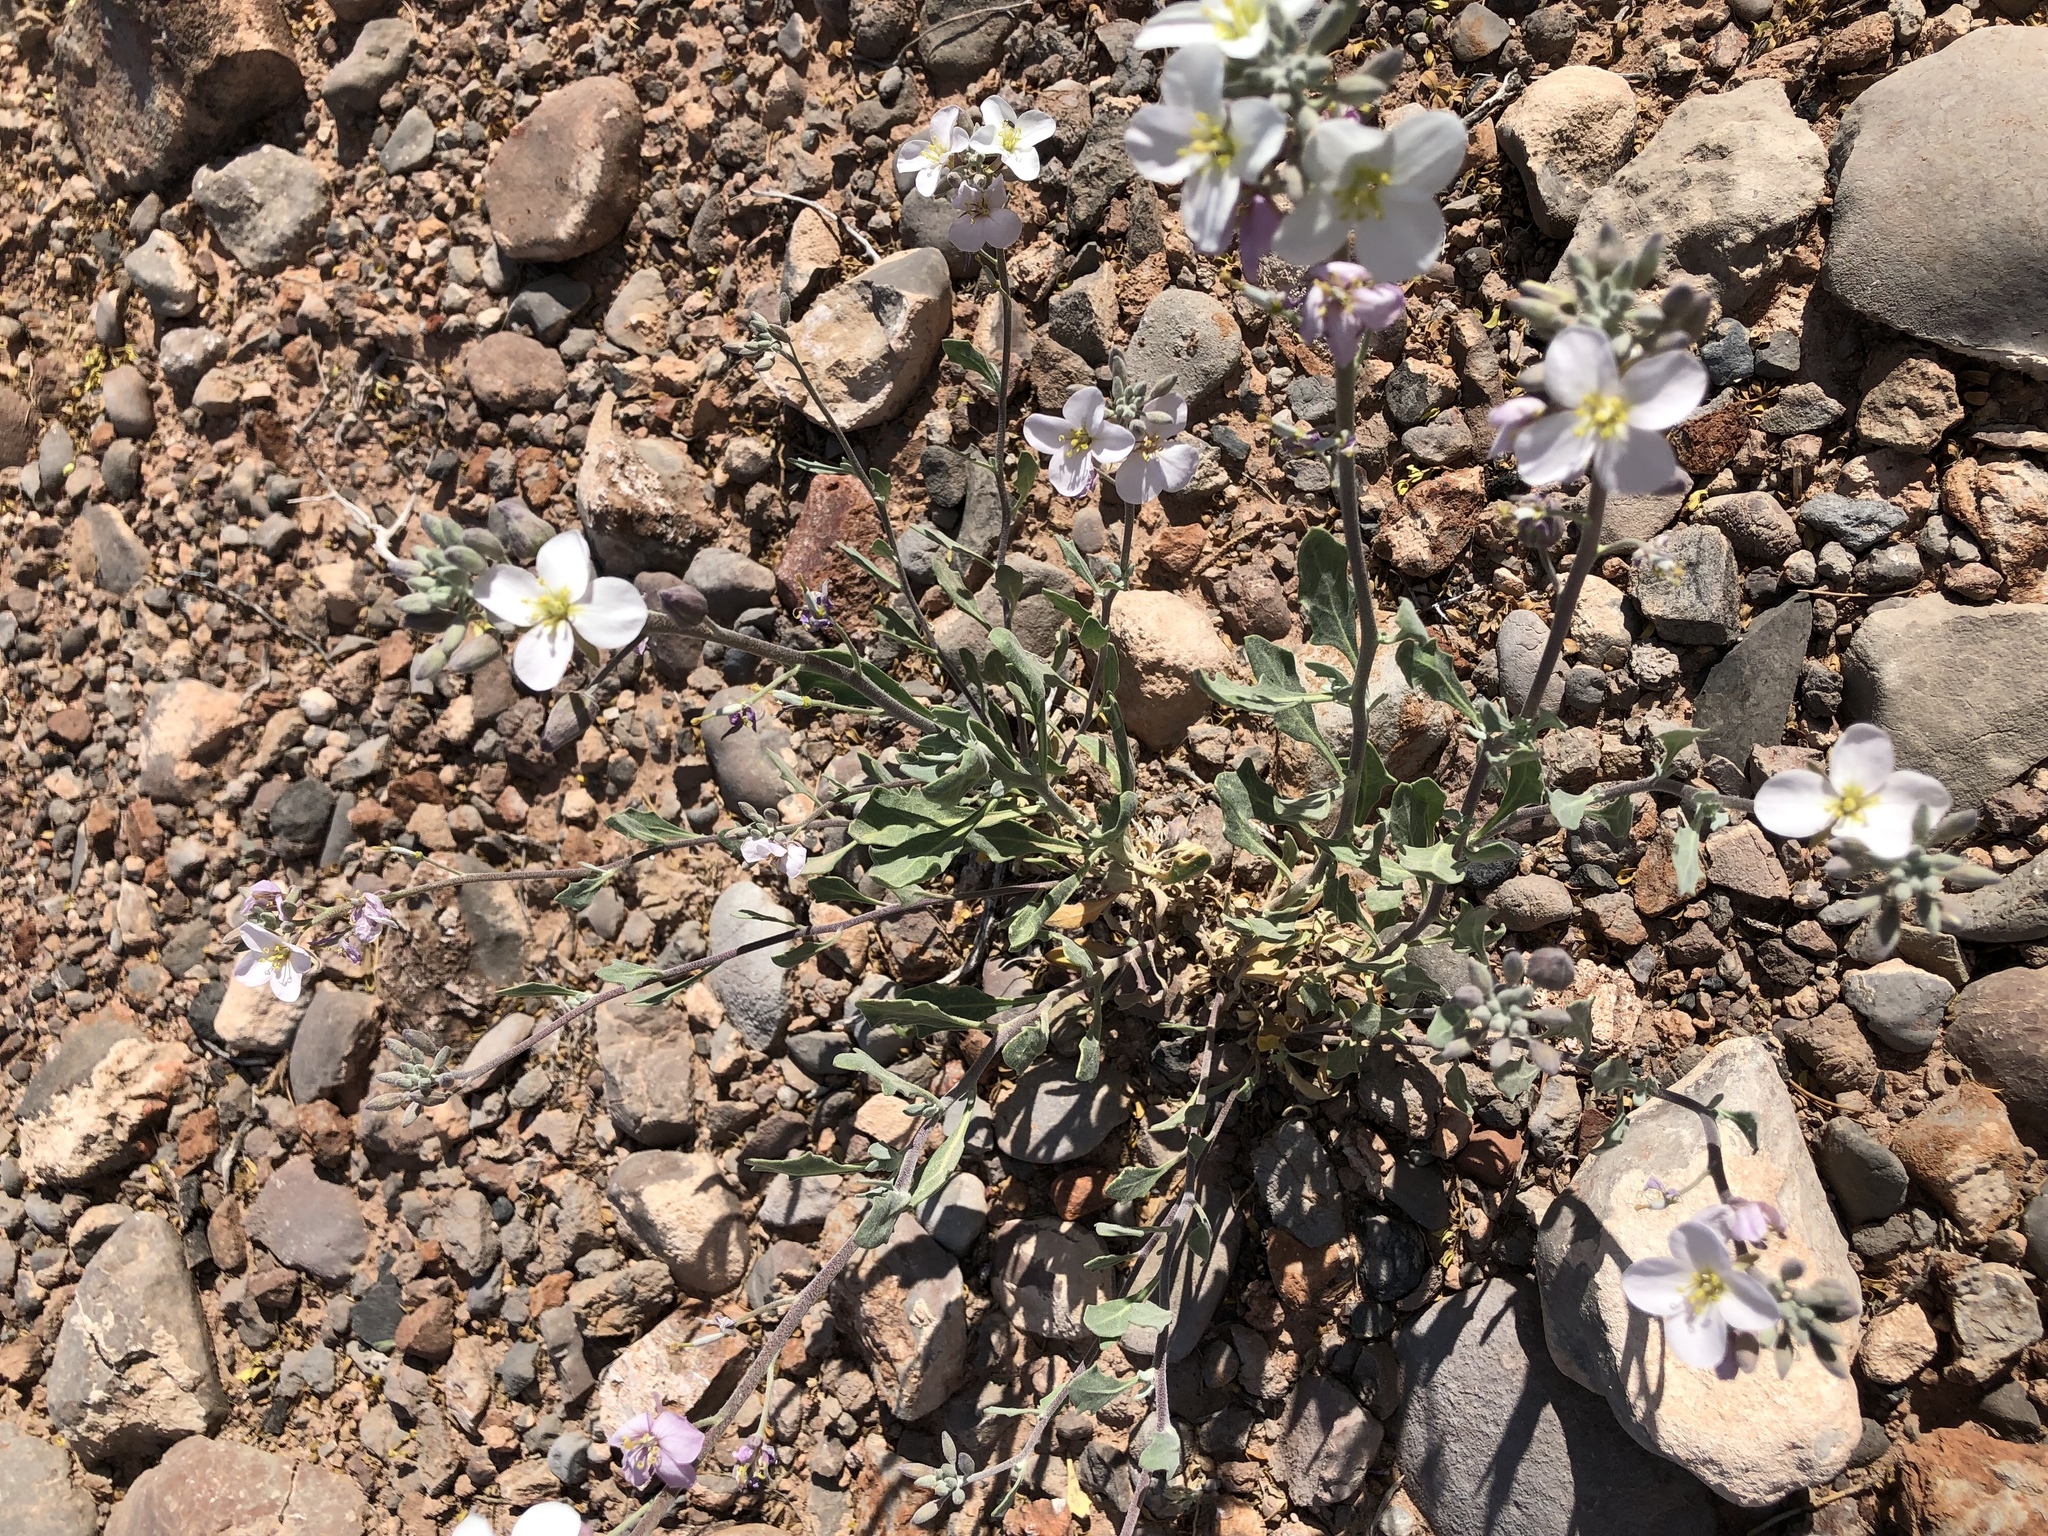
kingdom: Plantae
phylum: Tracheophyta
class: Magnoliopsida
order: Brassicales
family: Brassicaceae
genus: Nerisyrenia
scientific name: Nerisyrenia camporum
